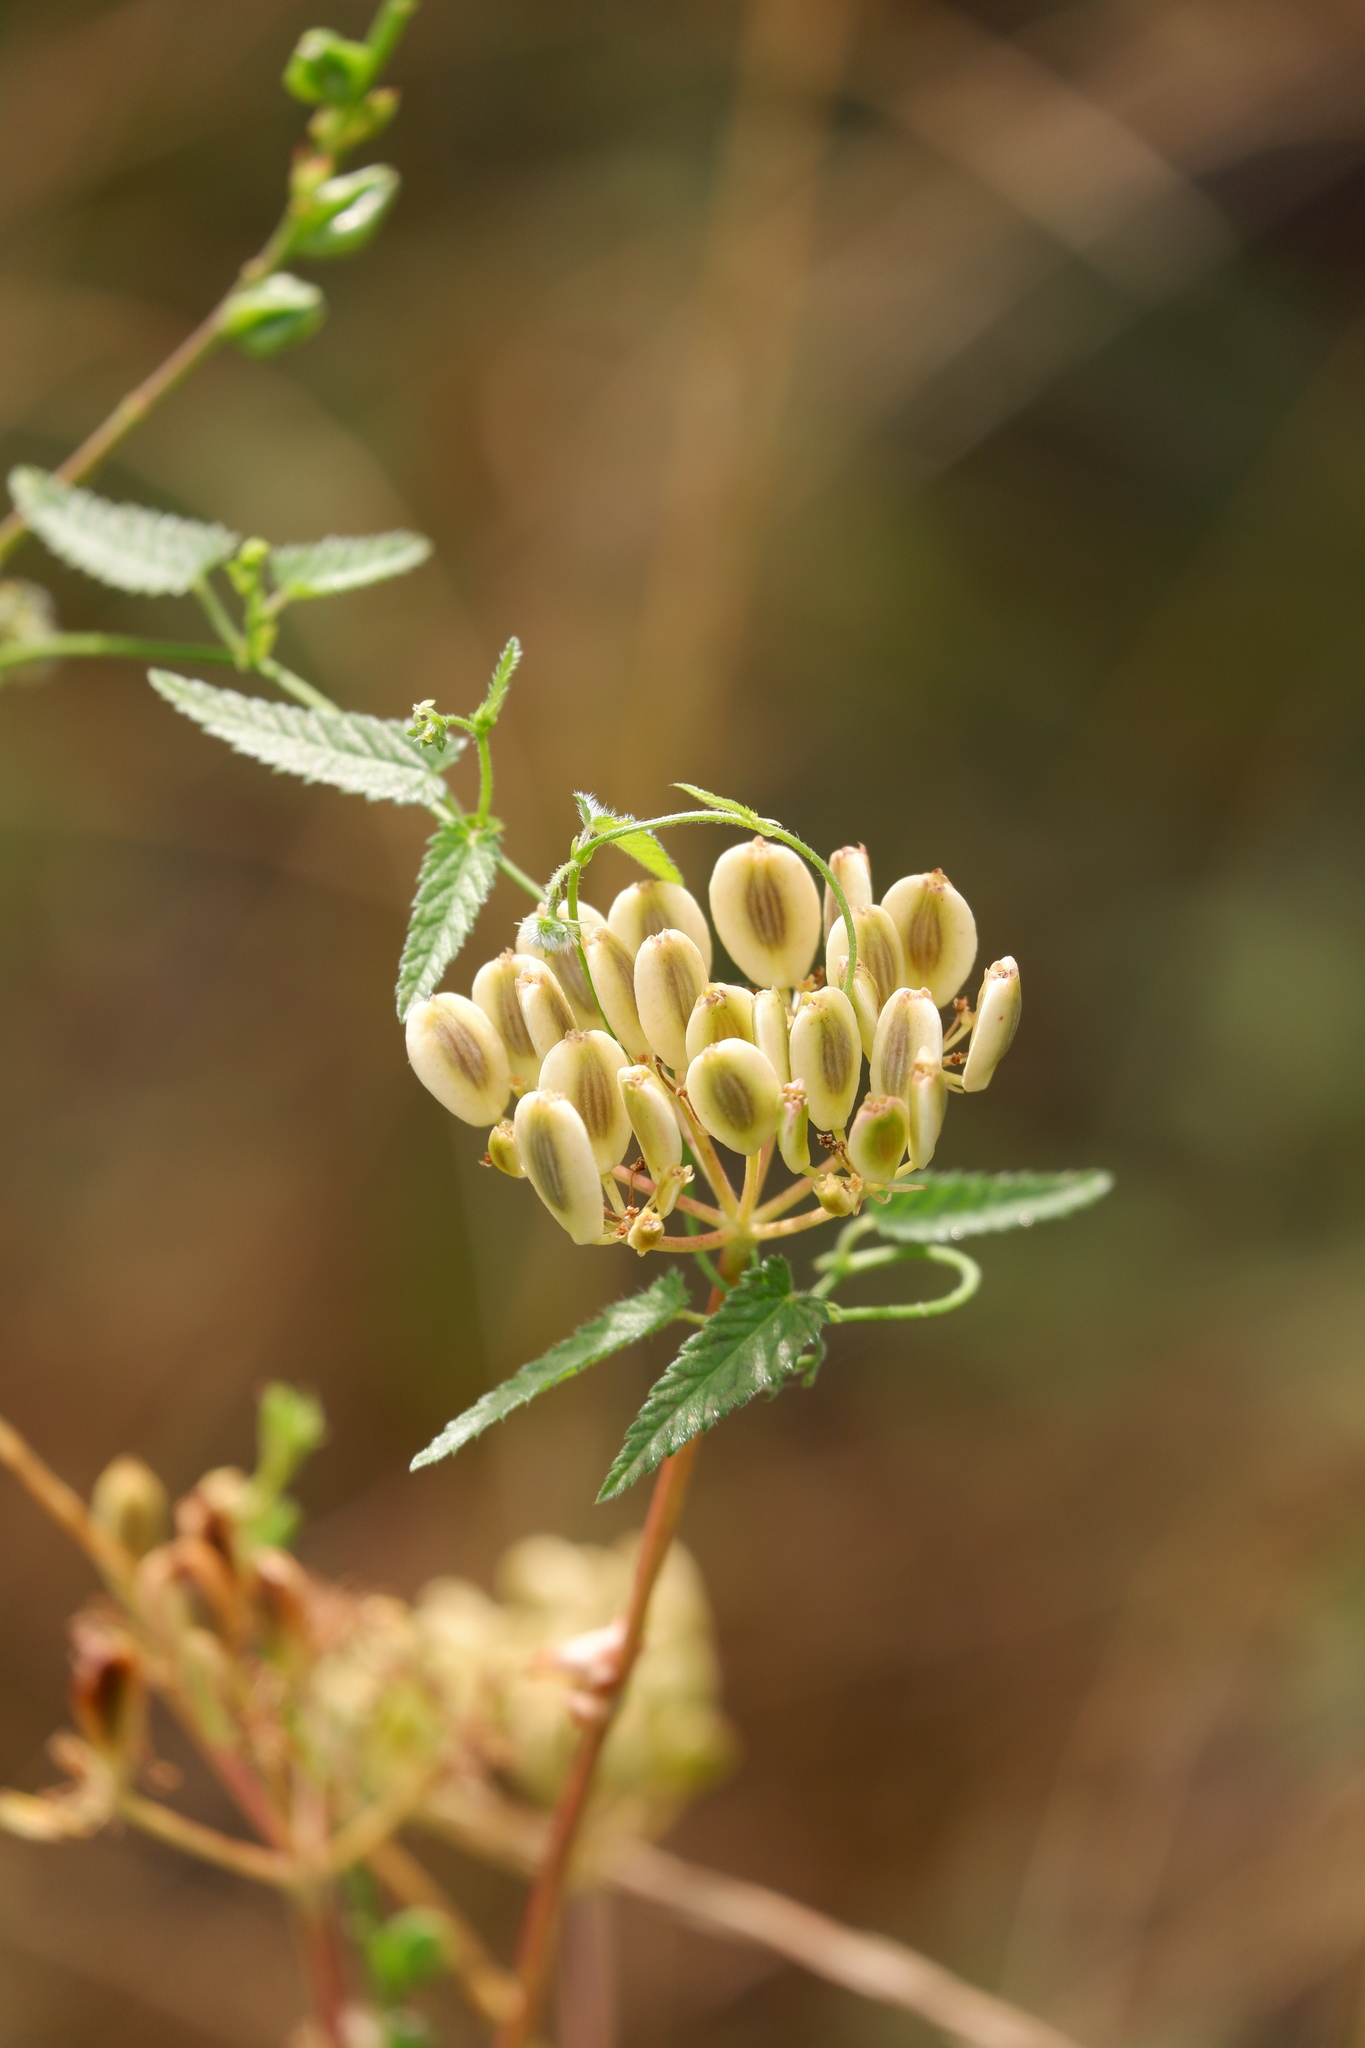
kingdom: Plantae
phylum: Tracheophyta
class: Magnoliopsida
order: Apiales
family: Apiaceae
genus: Polytaenia
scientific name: Polytaenia texana
